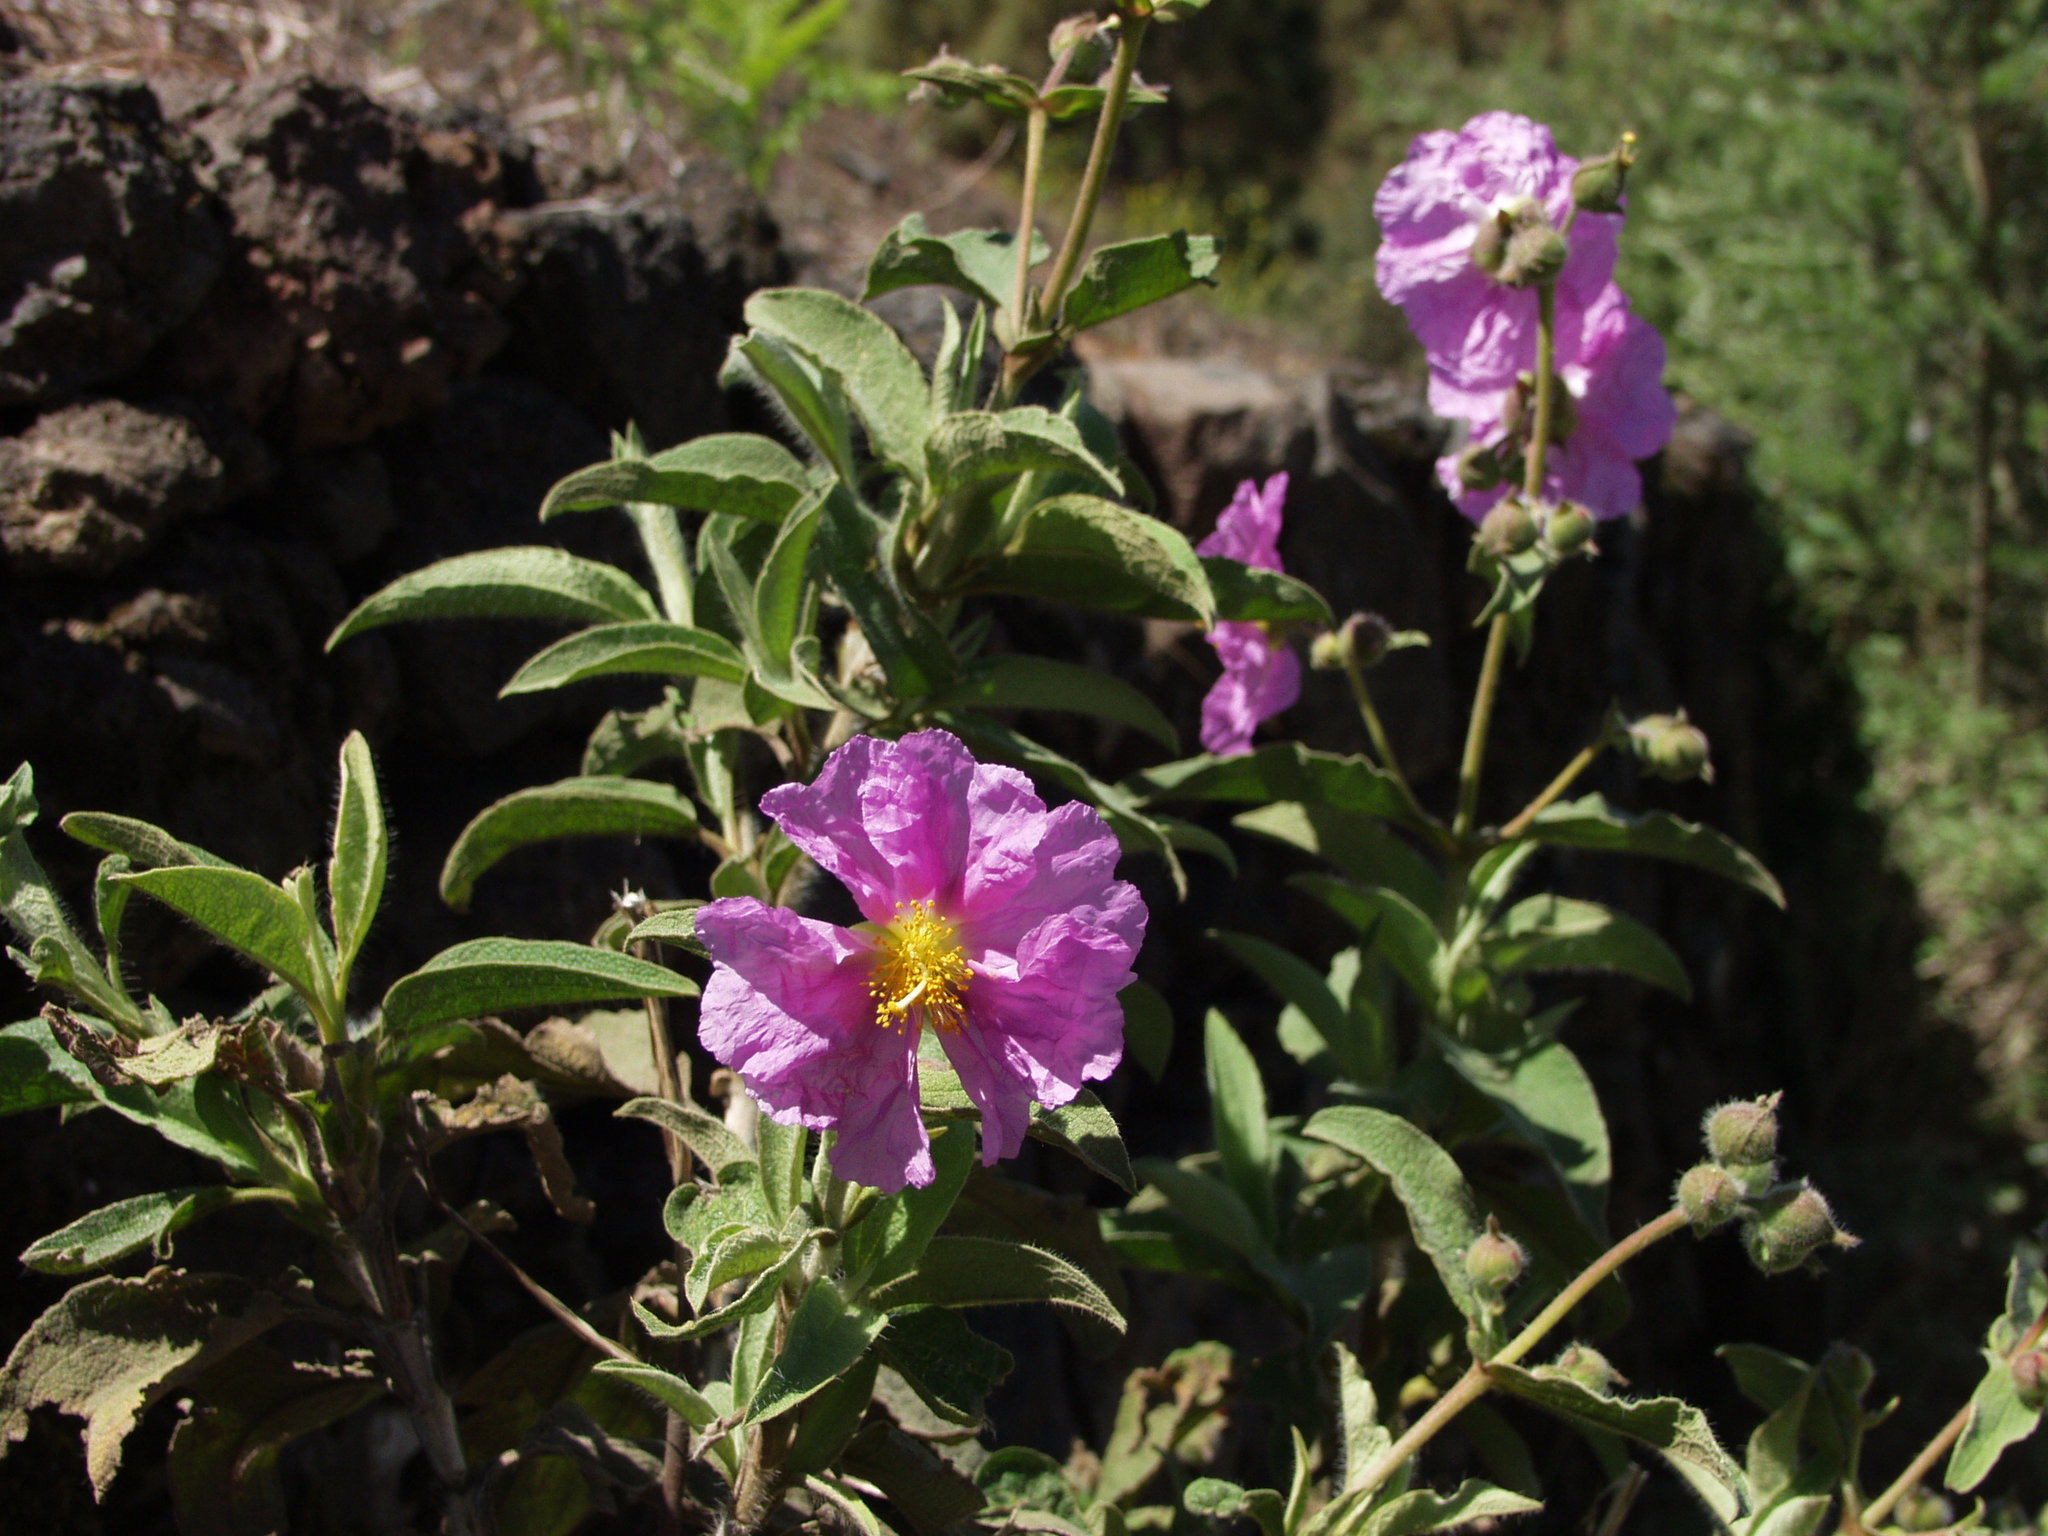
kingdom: Plantae
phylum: Tracheophyta
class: Magnoliopsida
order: Malvales
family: Cistaceae
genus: Cistus
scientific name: Cistus symphytifolius
